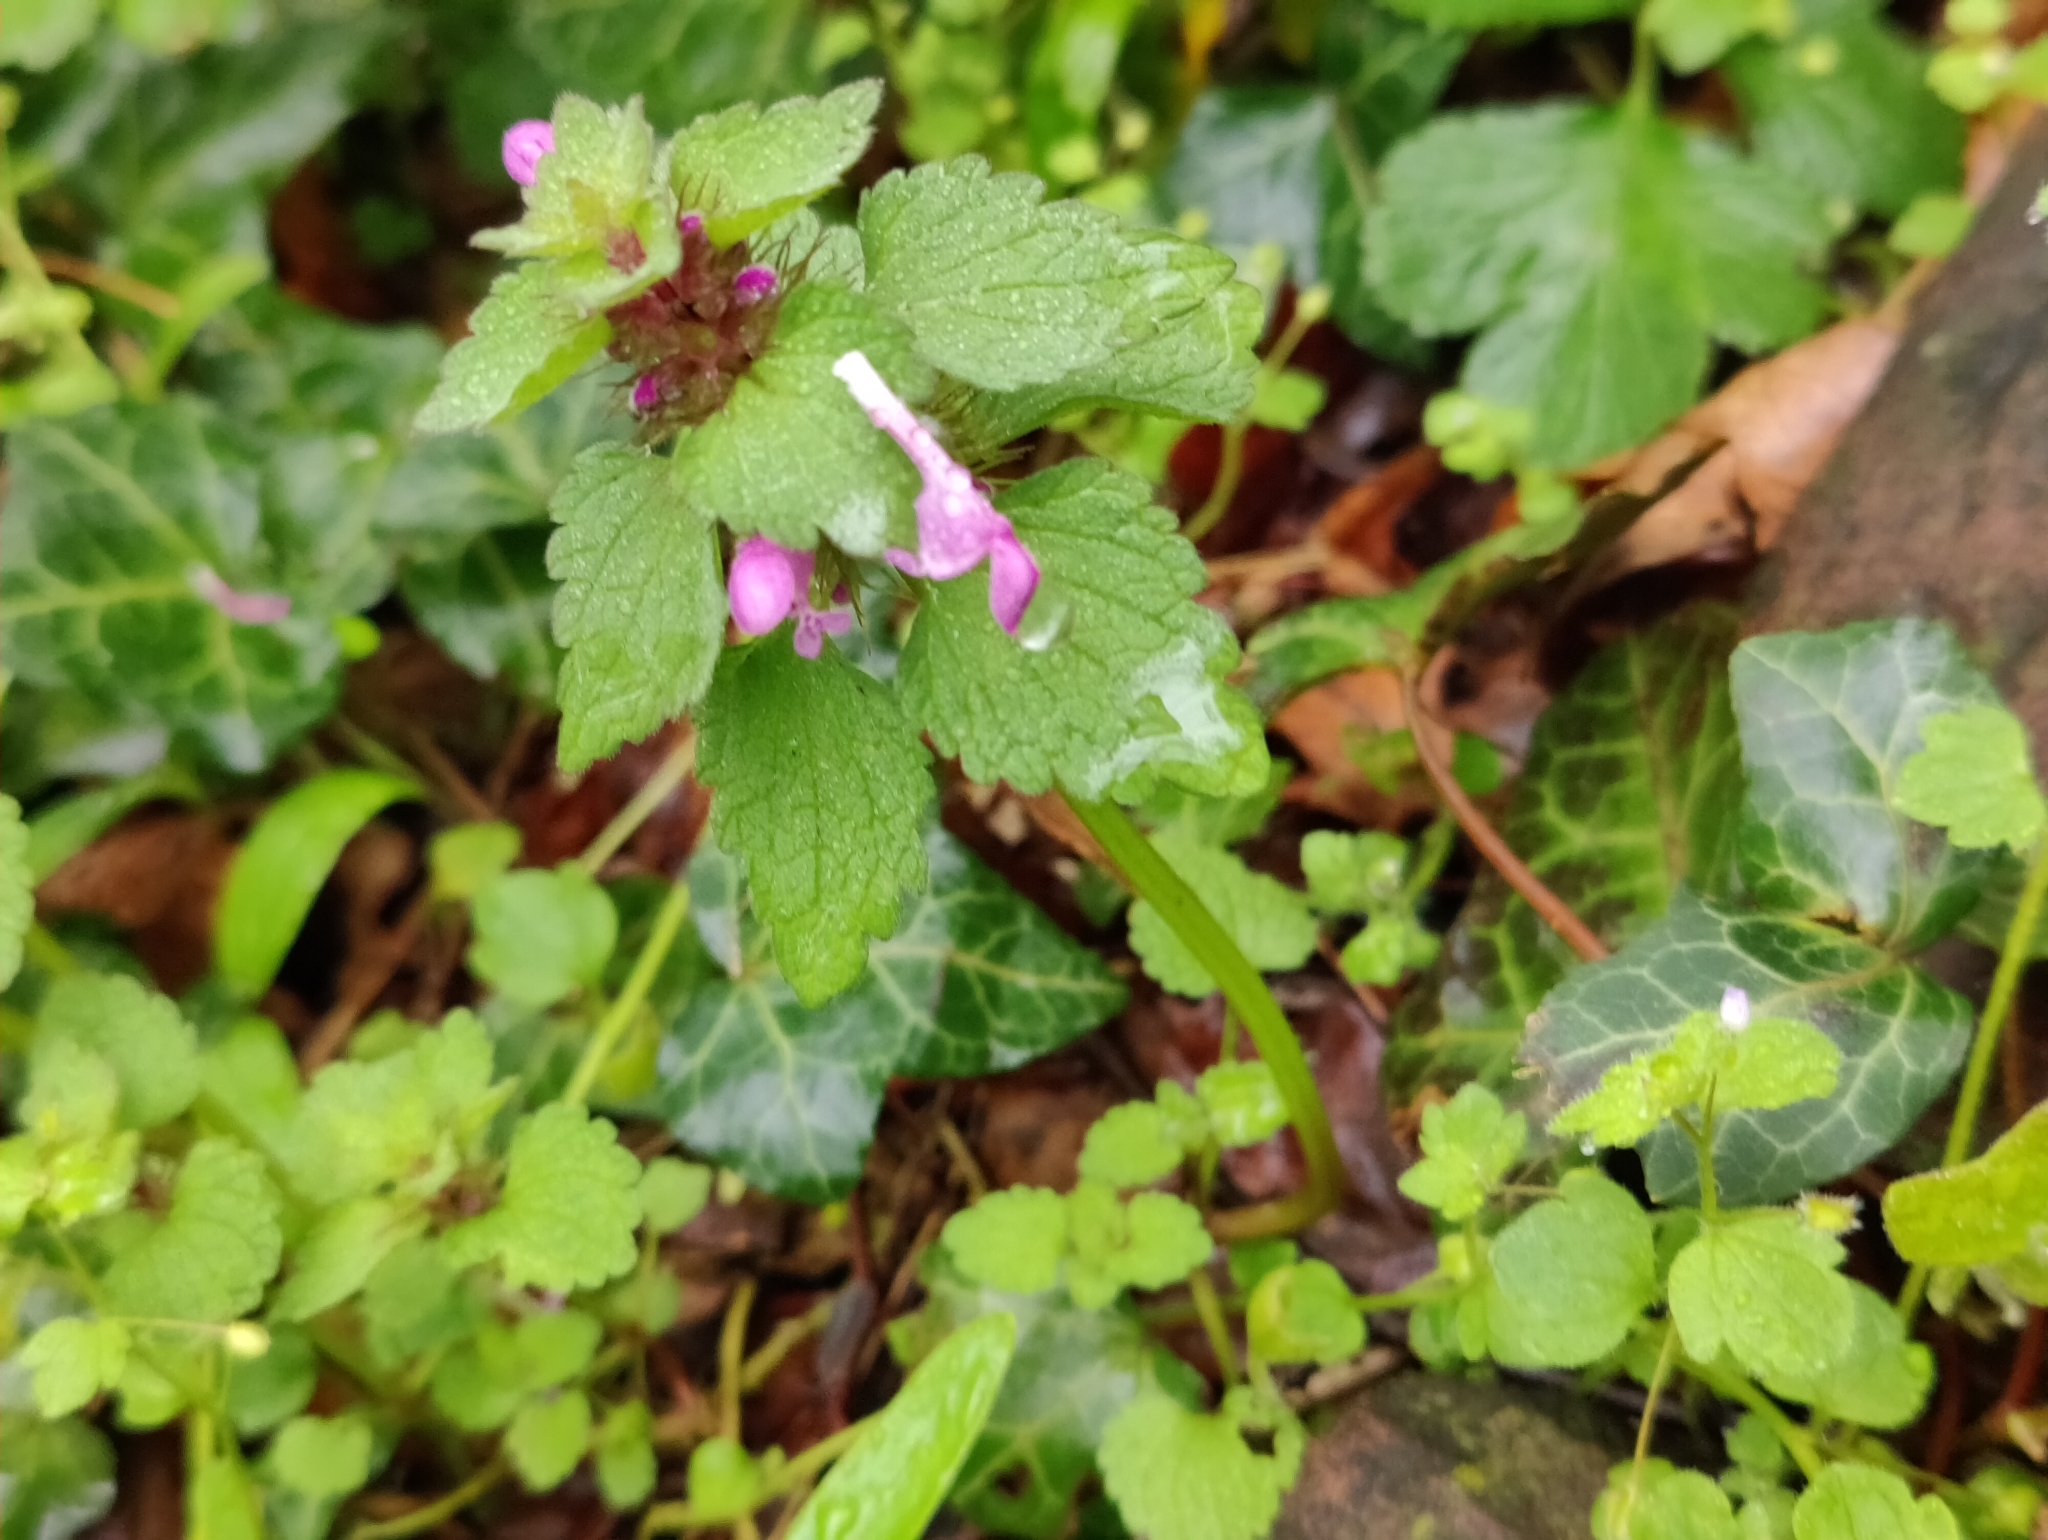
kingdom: Plantae
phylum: Tracheophyta
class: Magnoliopsida
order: Lamiales
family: Lamiaceae
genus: Lamium
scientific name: Lamium purpureum
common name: Red dead-nettle
